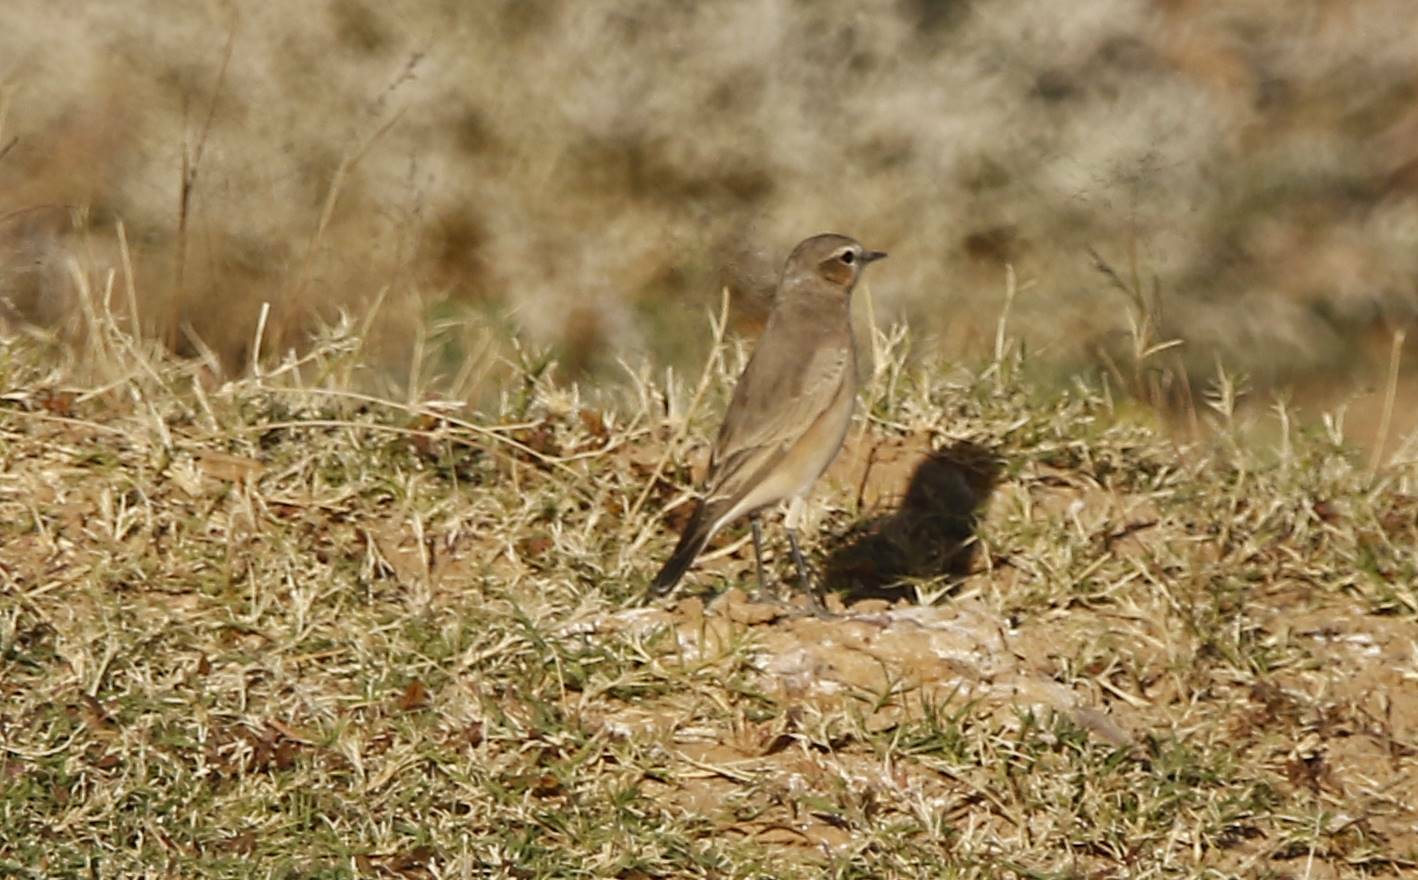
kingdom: Animalia
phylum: Chordata
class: Aves
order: Passeriformes
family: Muscicapidae
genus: Oenanthe
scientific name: Oenanthe isabellina
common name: Isabelline wheatear
